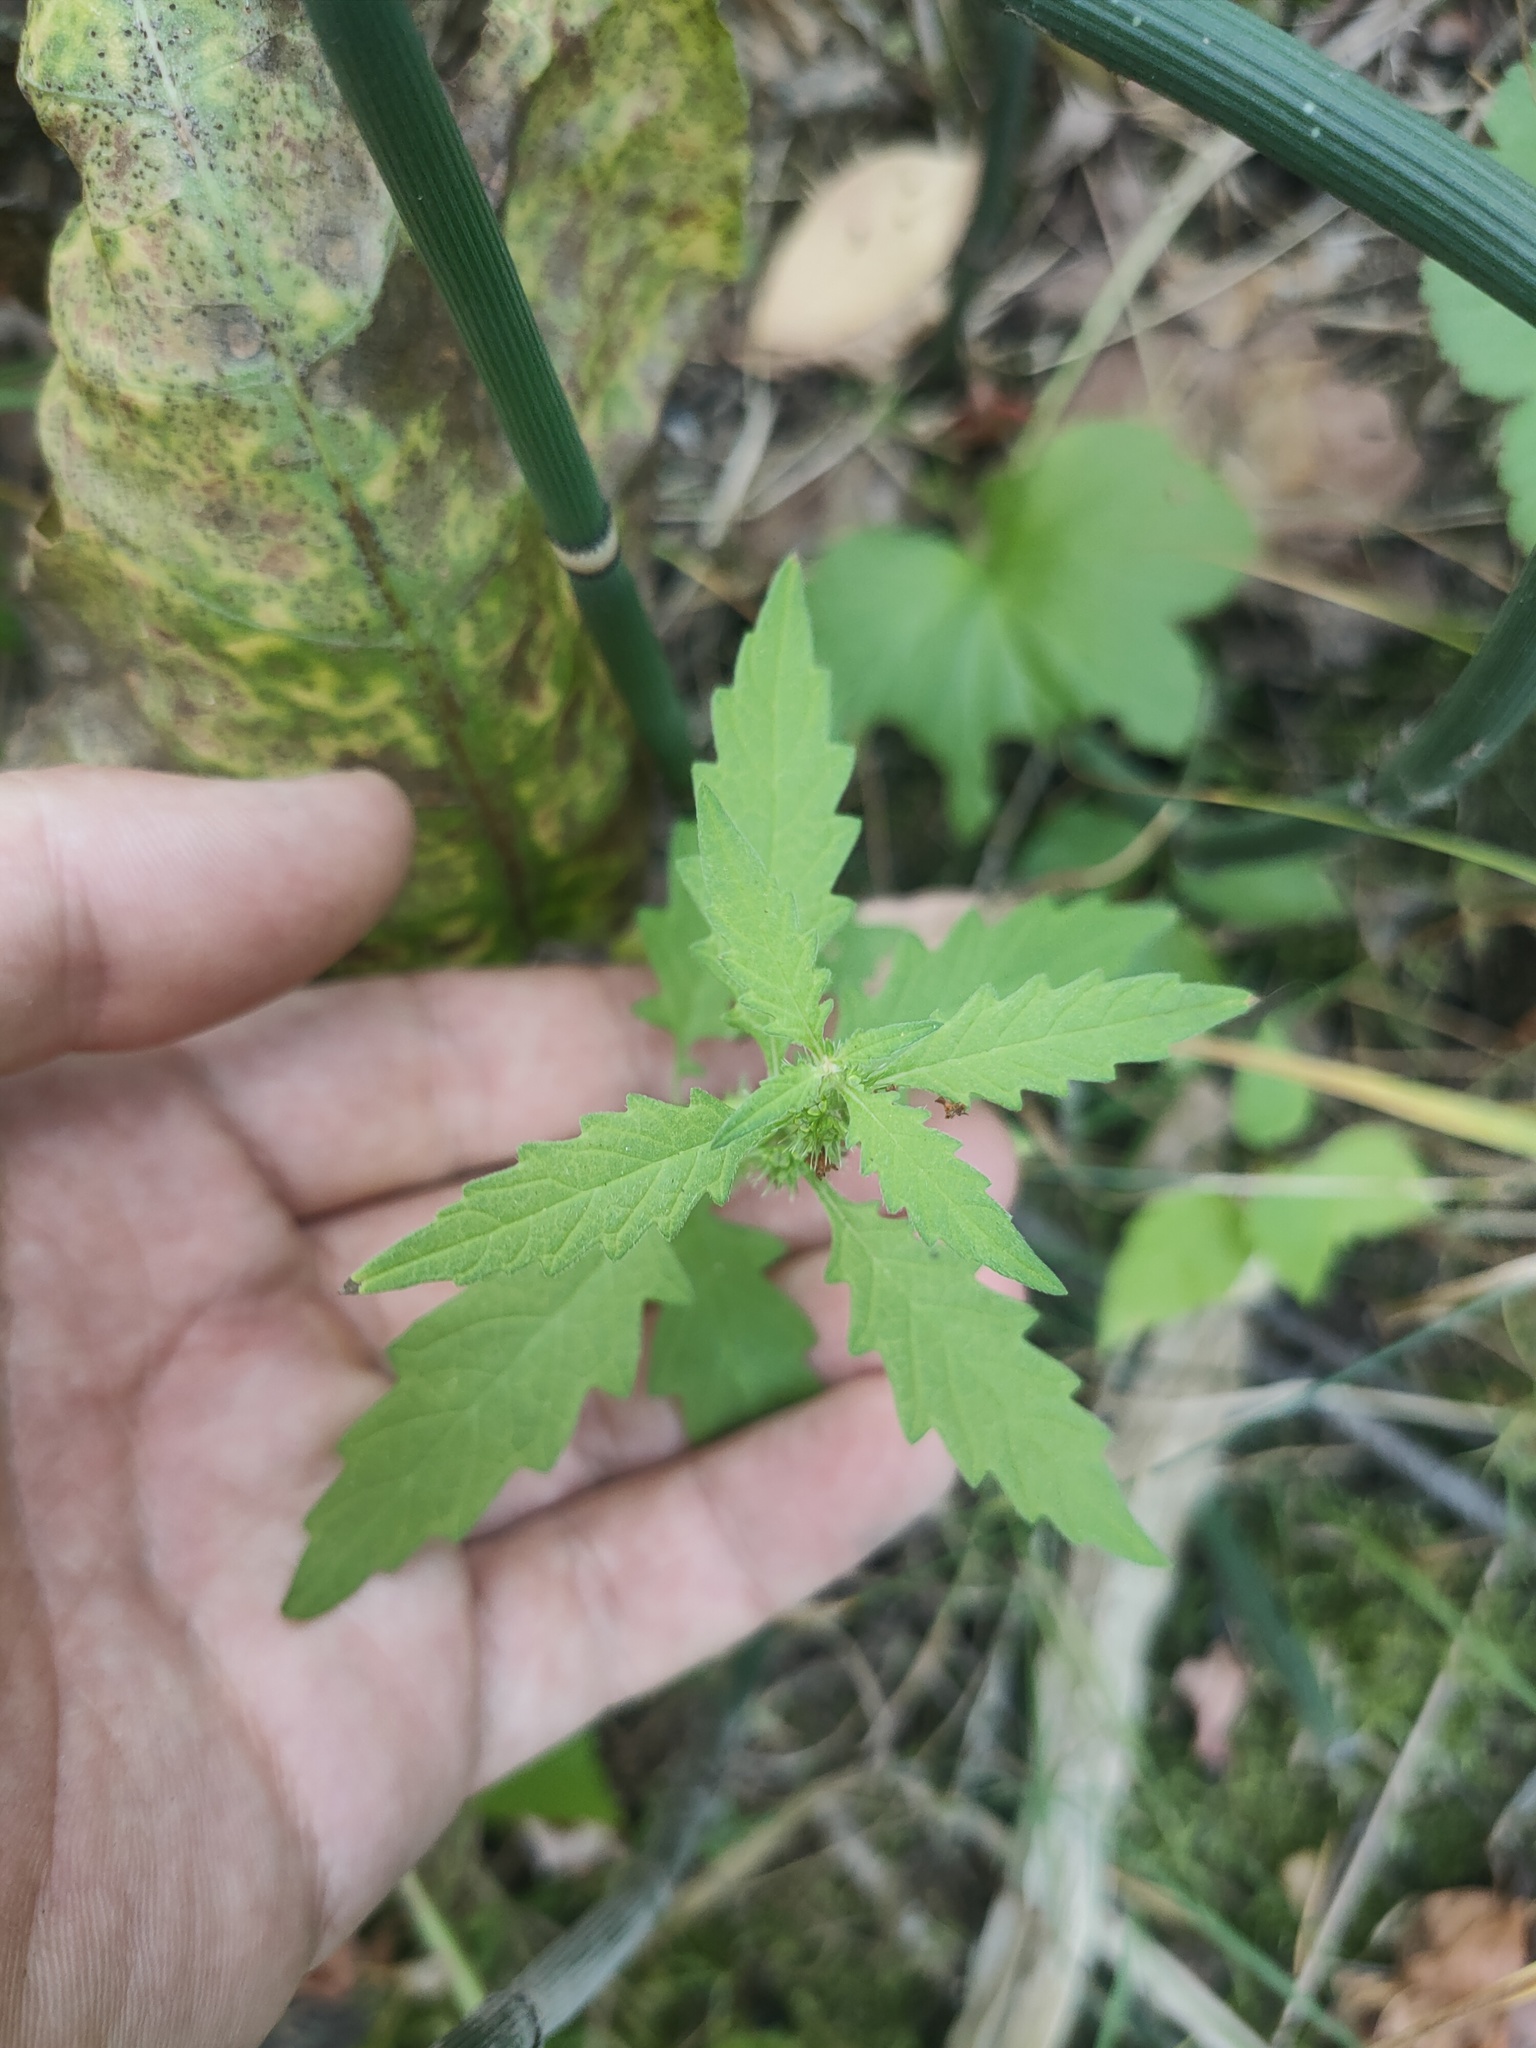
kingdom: Plantae
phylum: Tracheophyta
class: Magnoliopsida
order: Lamiales
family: Lamiaceae
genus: Lycopus
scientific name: Lycopus europaeus
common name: European bugleweed
